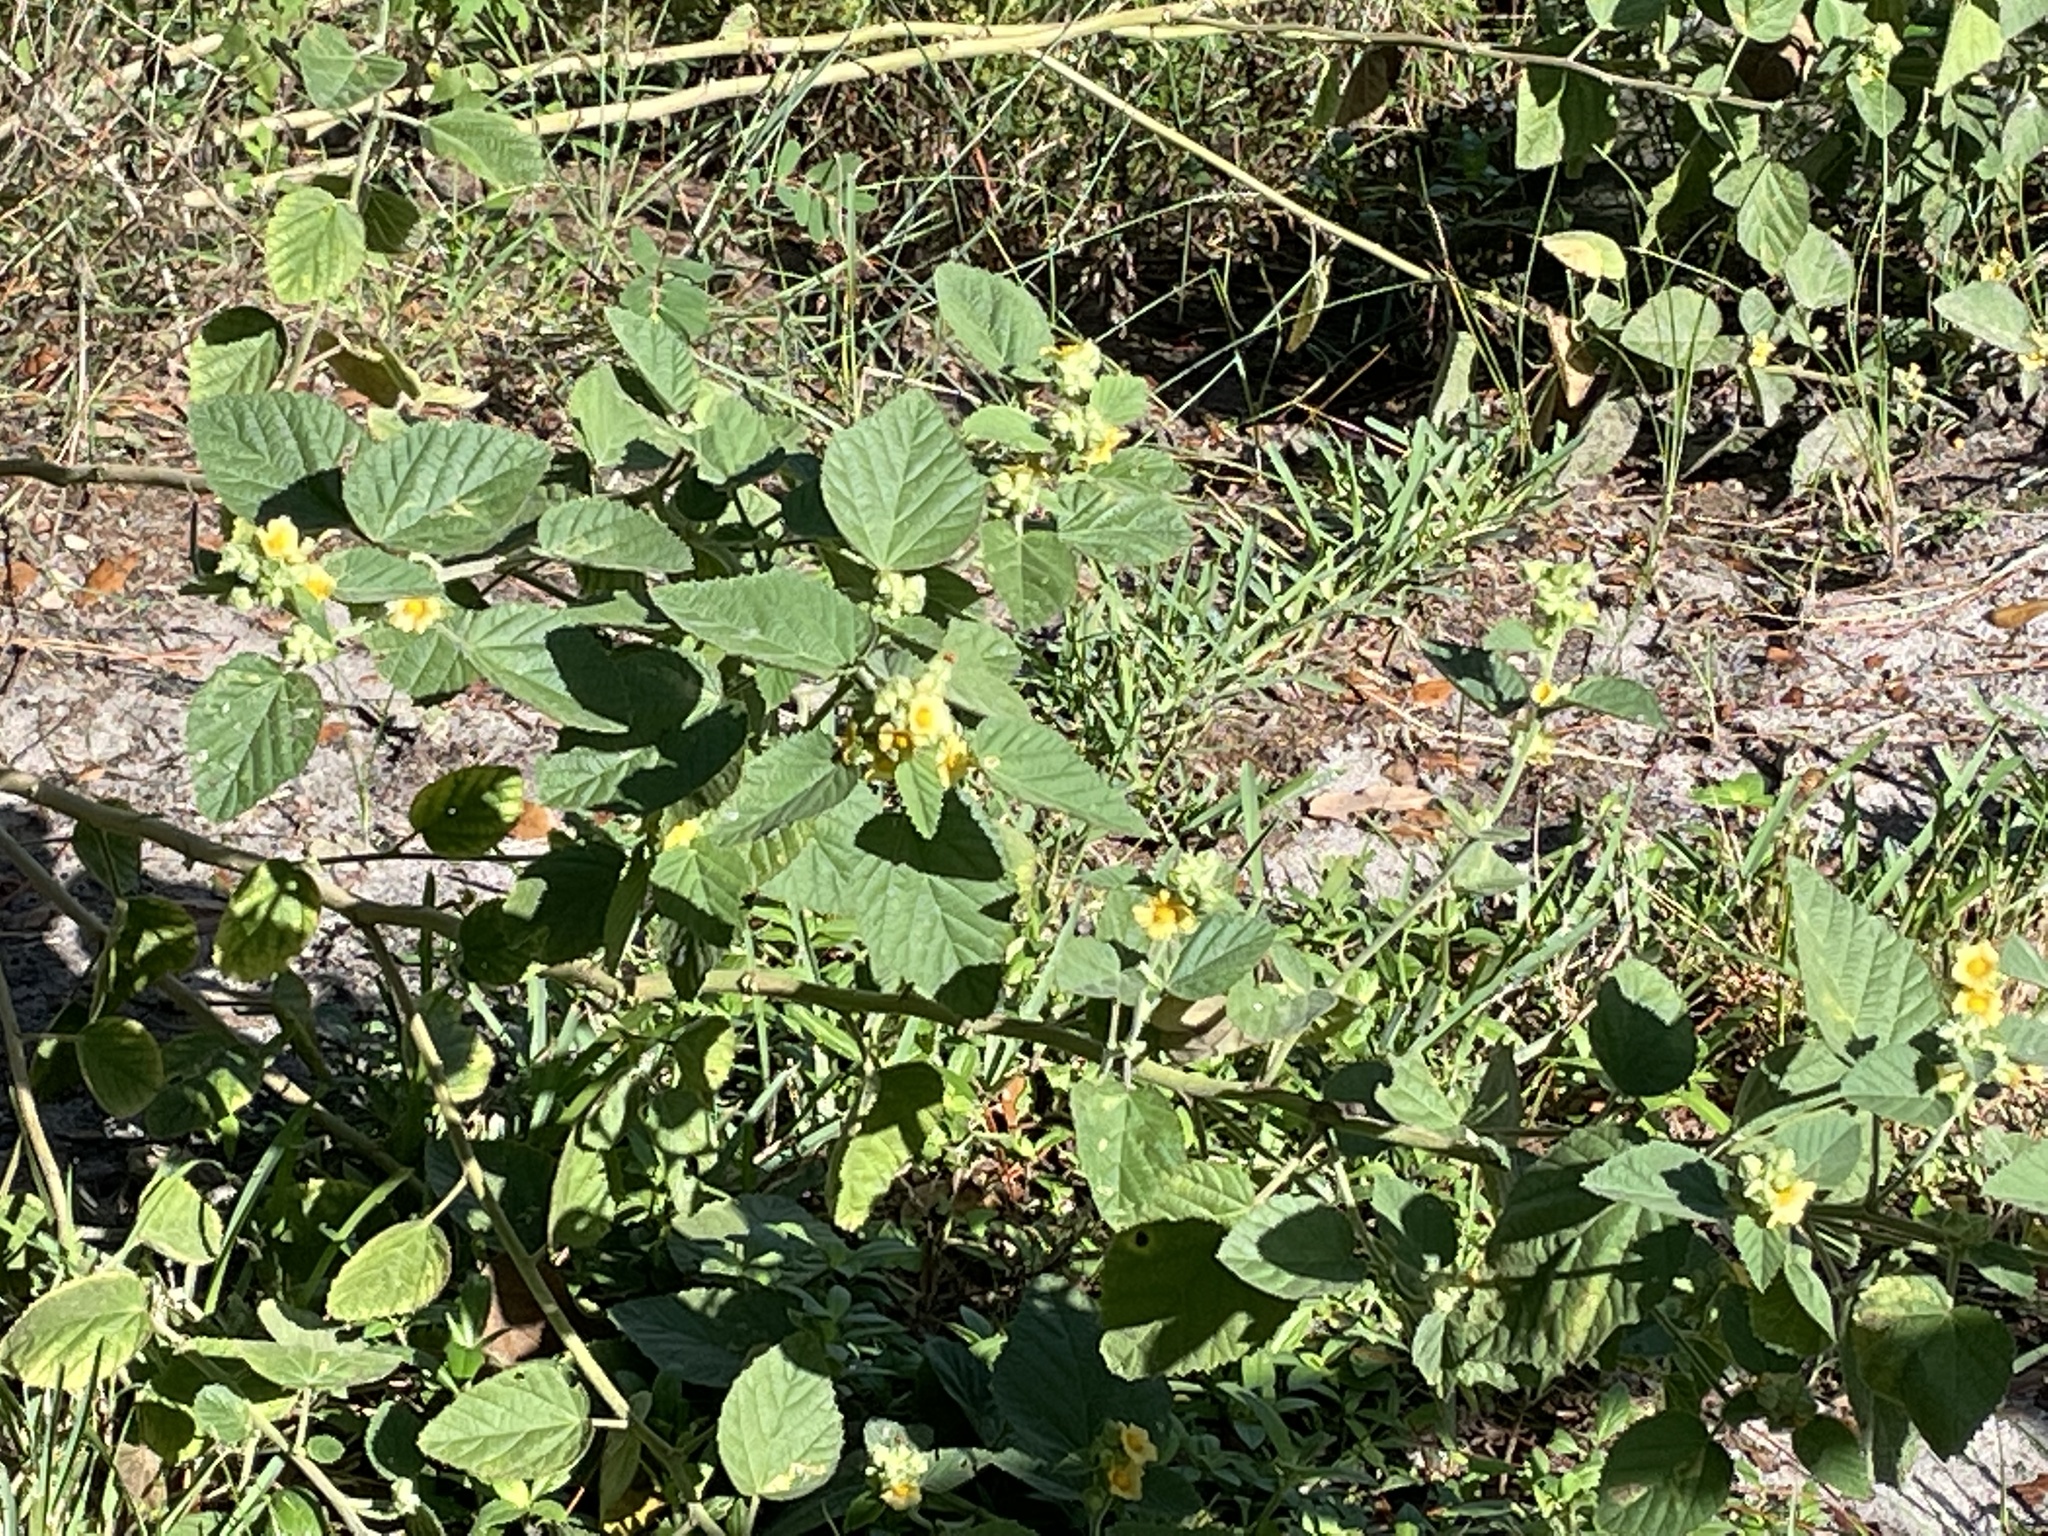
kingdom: Plantae
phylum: Tracheophyta
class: Magnoliopsida
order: Malvales
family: Malvaceae
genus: Sida
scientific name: Sida cordifolia
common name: Ilima
